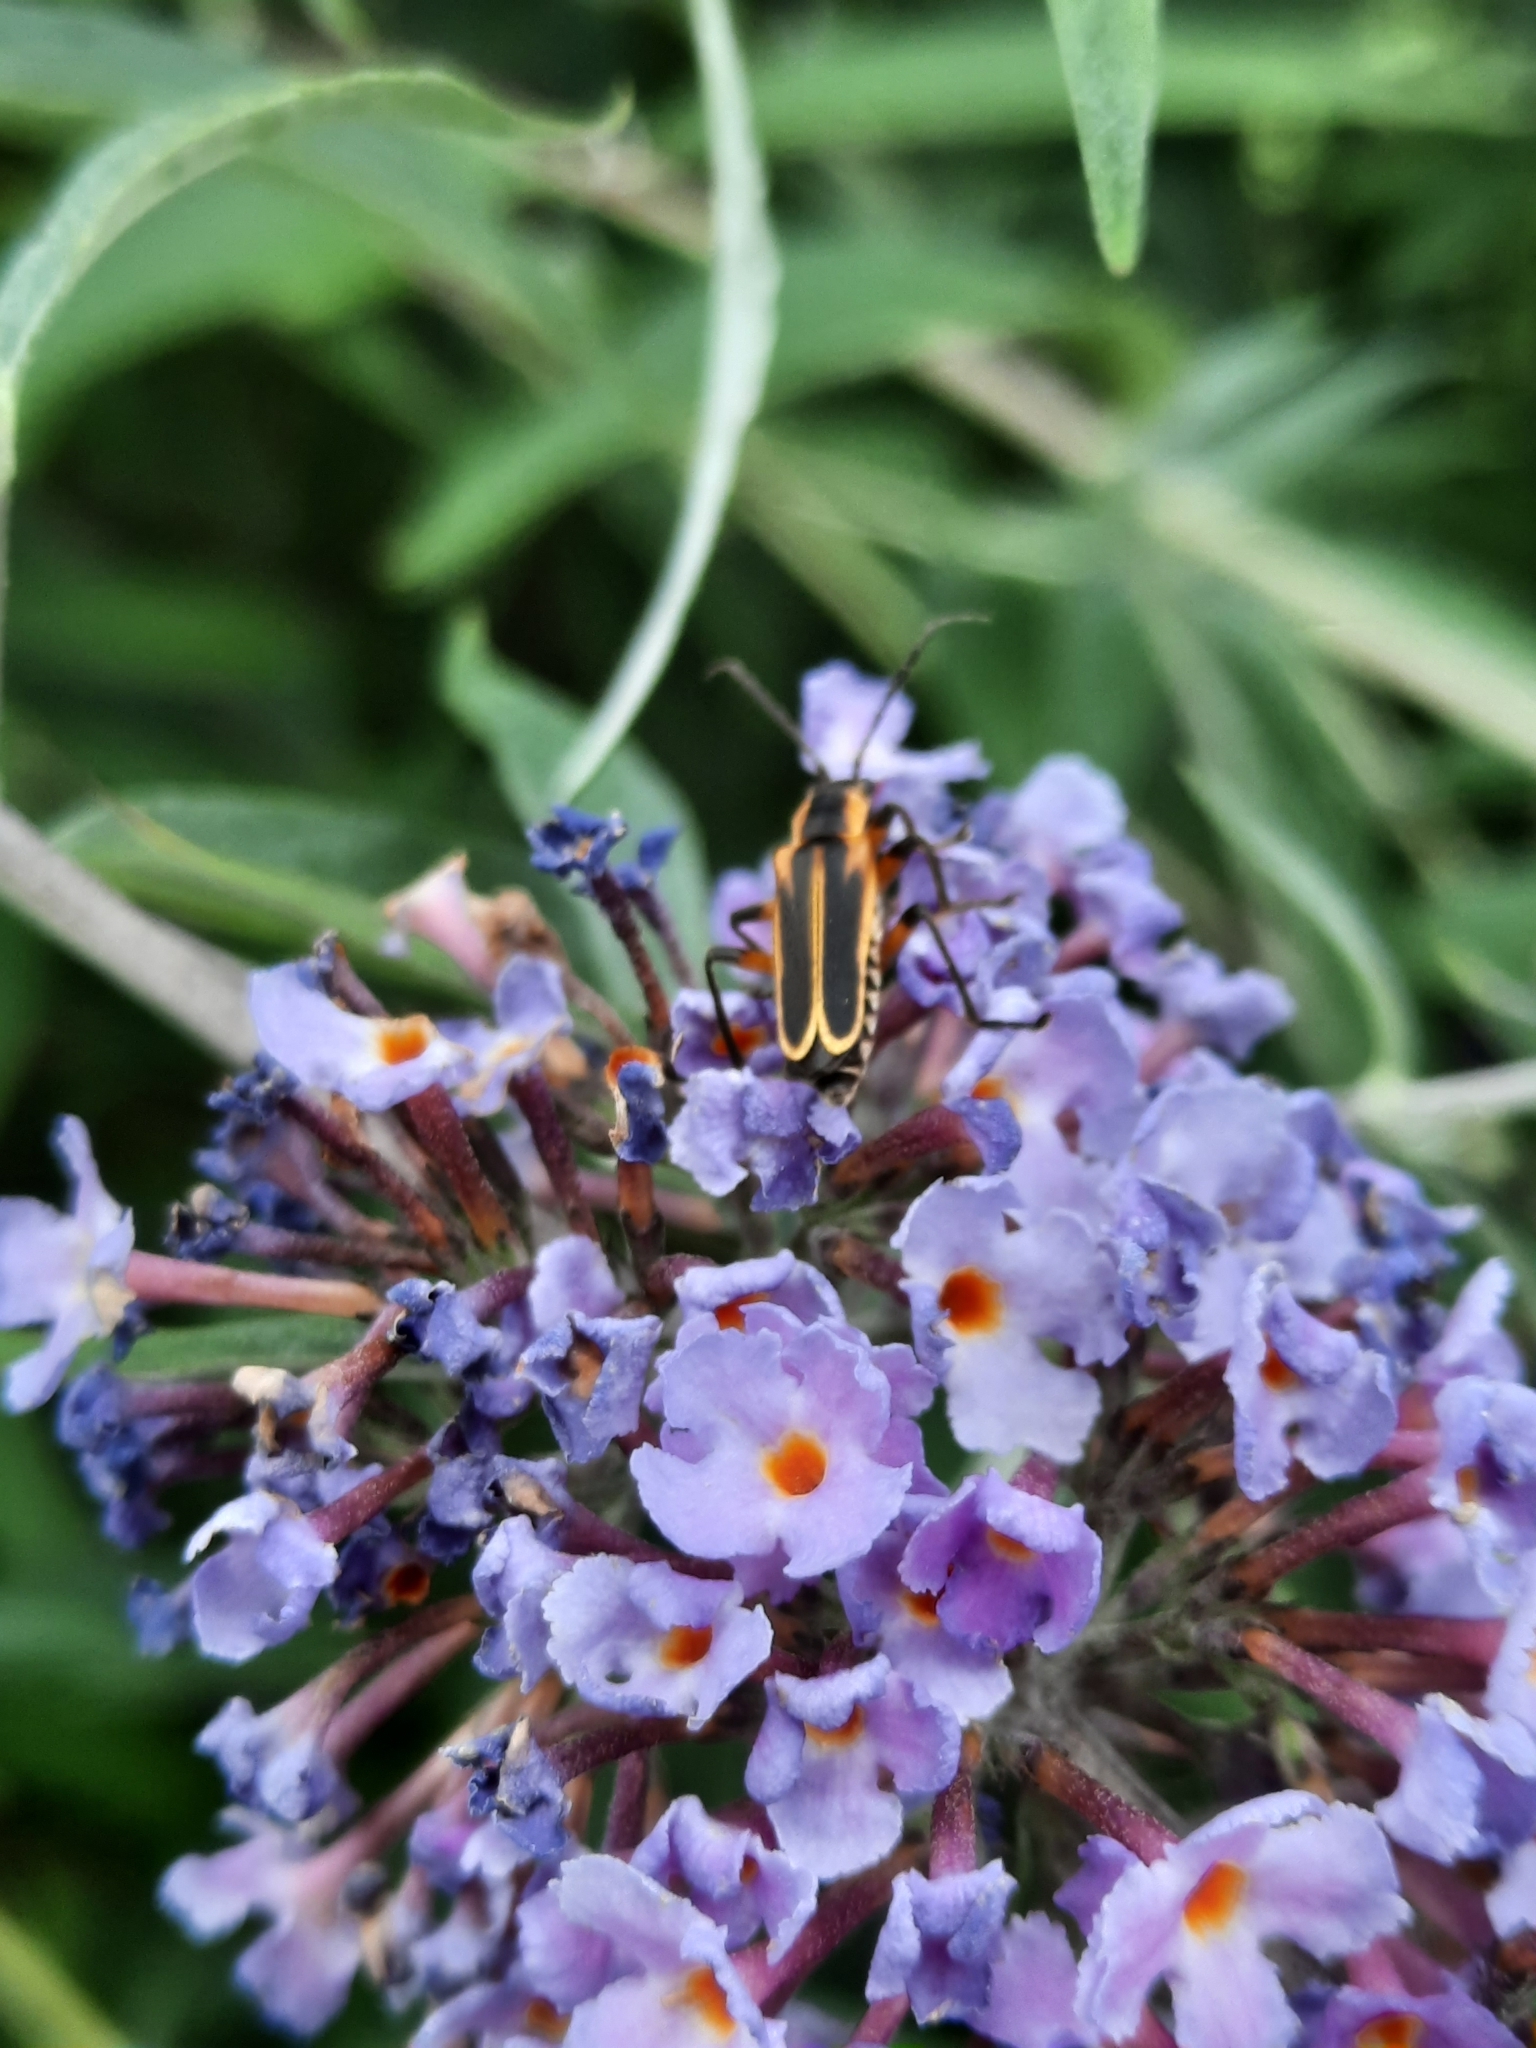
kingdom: Animalia
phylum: Arthropoda
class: Insecta
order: Coleoptera
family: Cantharidae
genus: Chauliognathus
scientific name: Chauliognathus marginatus
